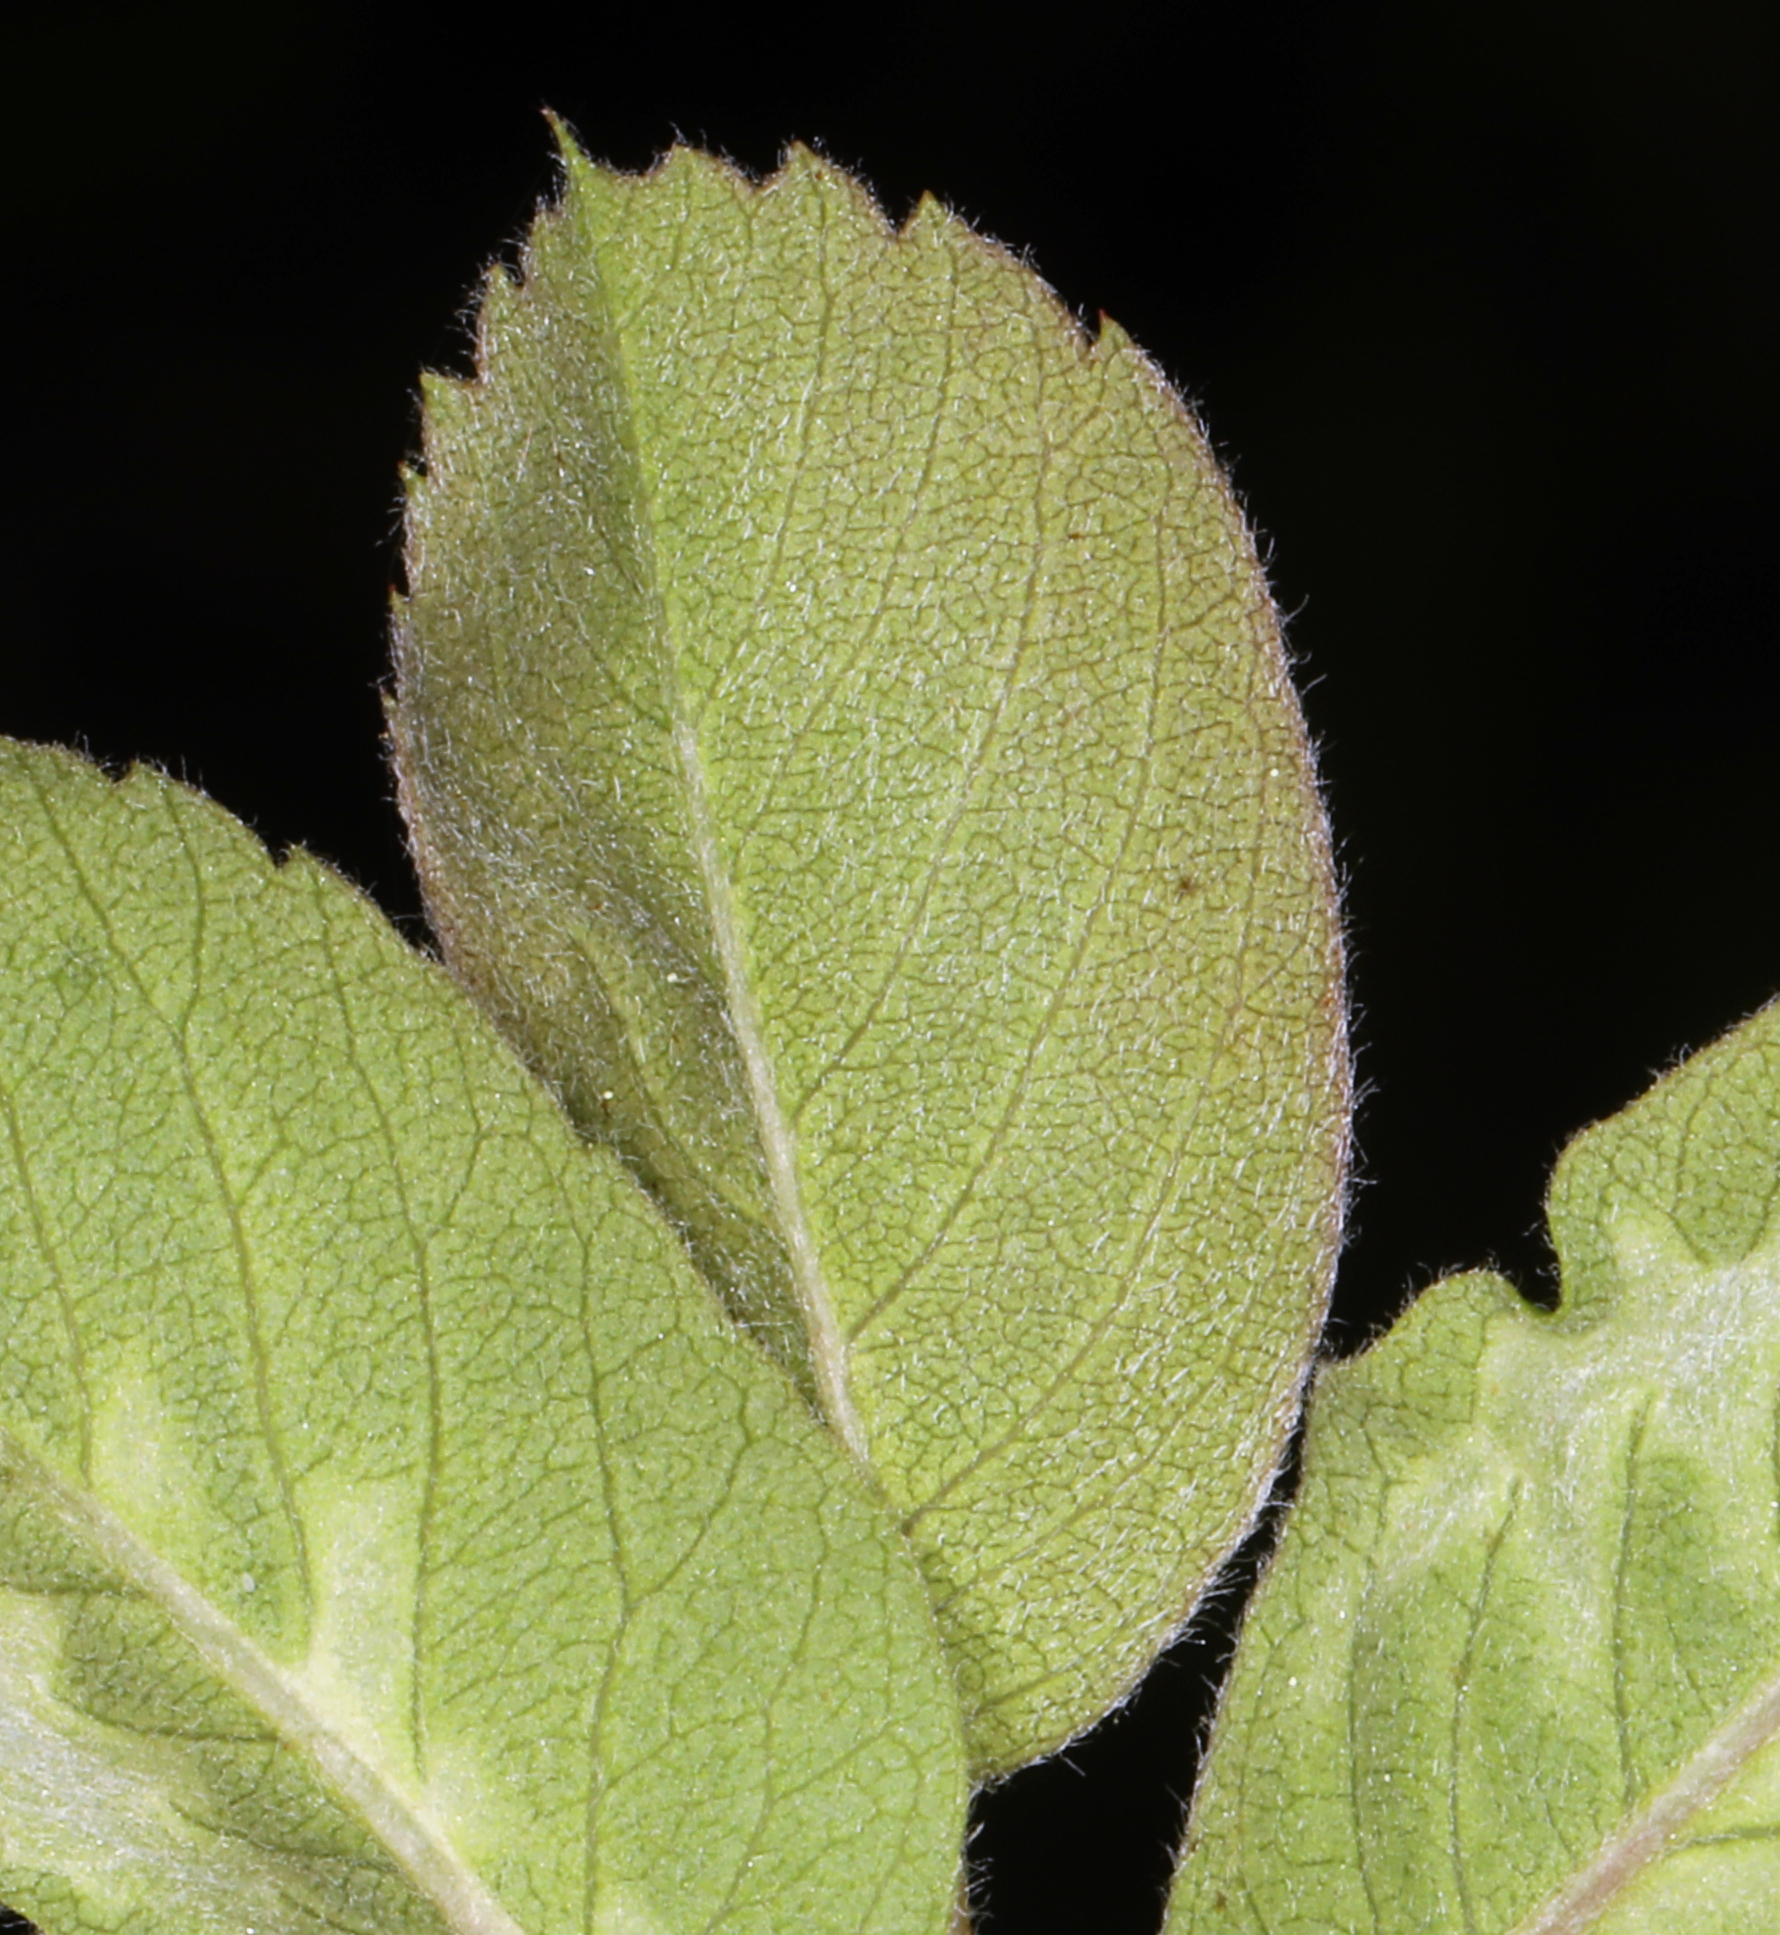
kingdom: Plantae
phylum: Tracheophyta
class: Magnoliopsida
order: Rosales
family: Rosaceae
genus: Amelanchier
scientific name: Amelanchier utahensis
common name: Utah serviceberry
